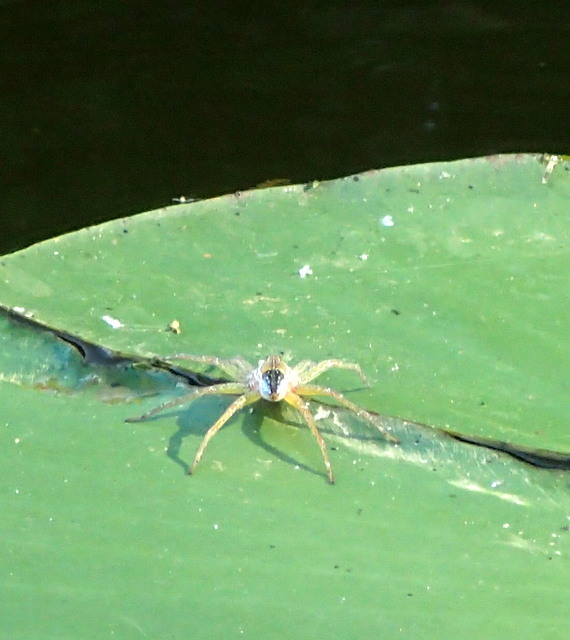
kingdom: Animalia
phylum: Arthropoda
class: Arachnida
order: Araneae
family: Pisauridae
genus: Dolomedes
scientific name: Dolomedes triton
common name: Six-spotted fishing spider
